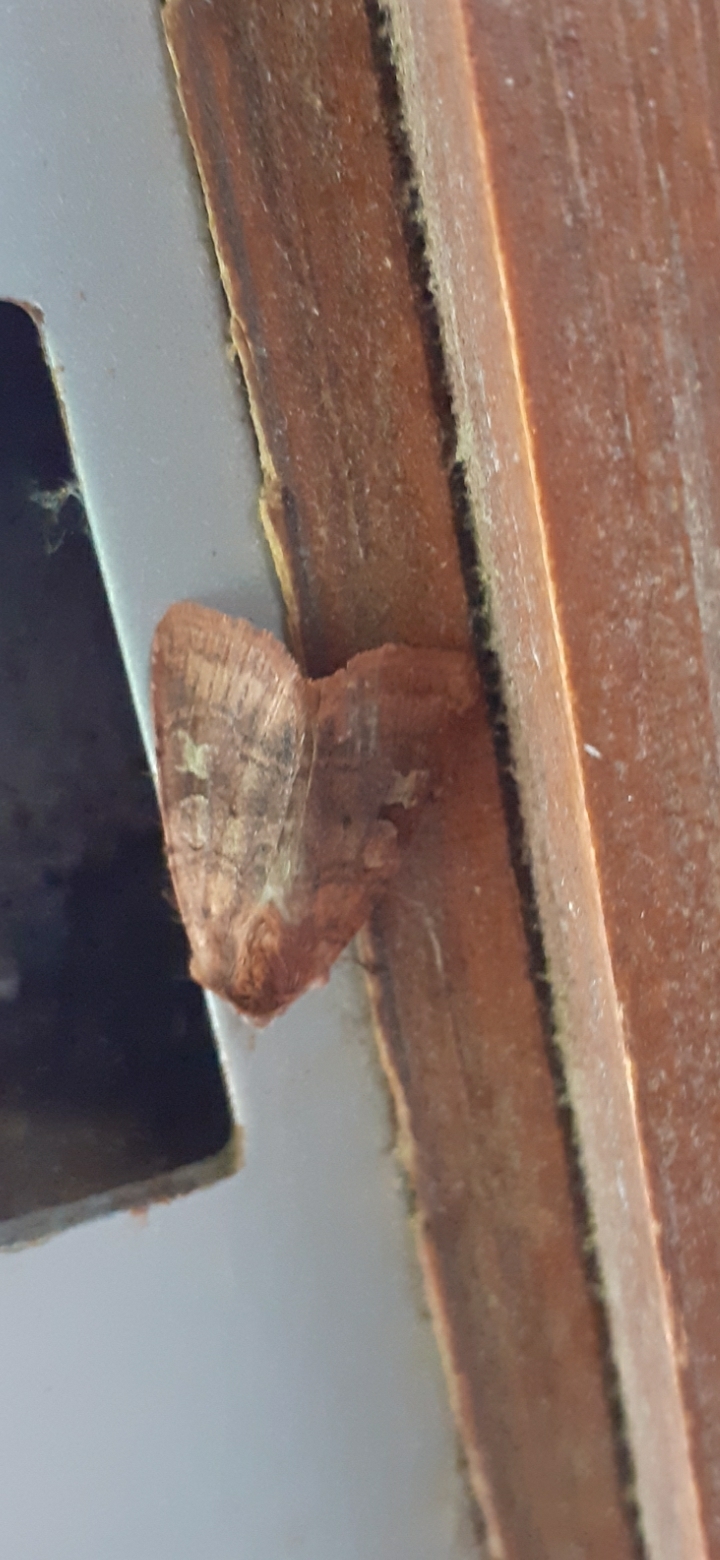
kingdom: Animalia
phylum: Arthropoda
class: Insecta
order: Lepidoptera
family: Noctuidae
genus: Diarsia
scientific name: Diarsia rubi
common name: Small square-spot
